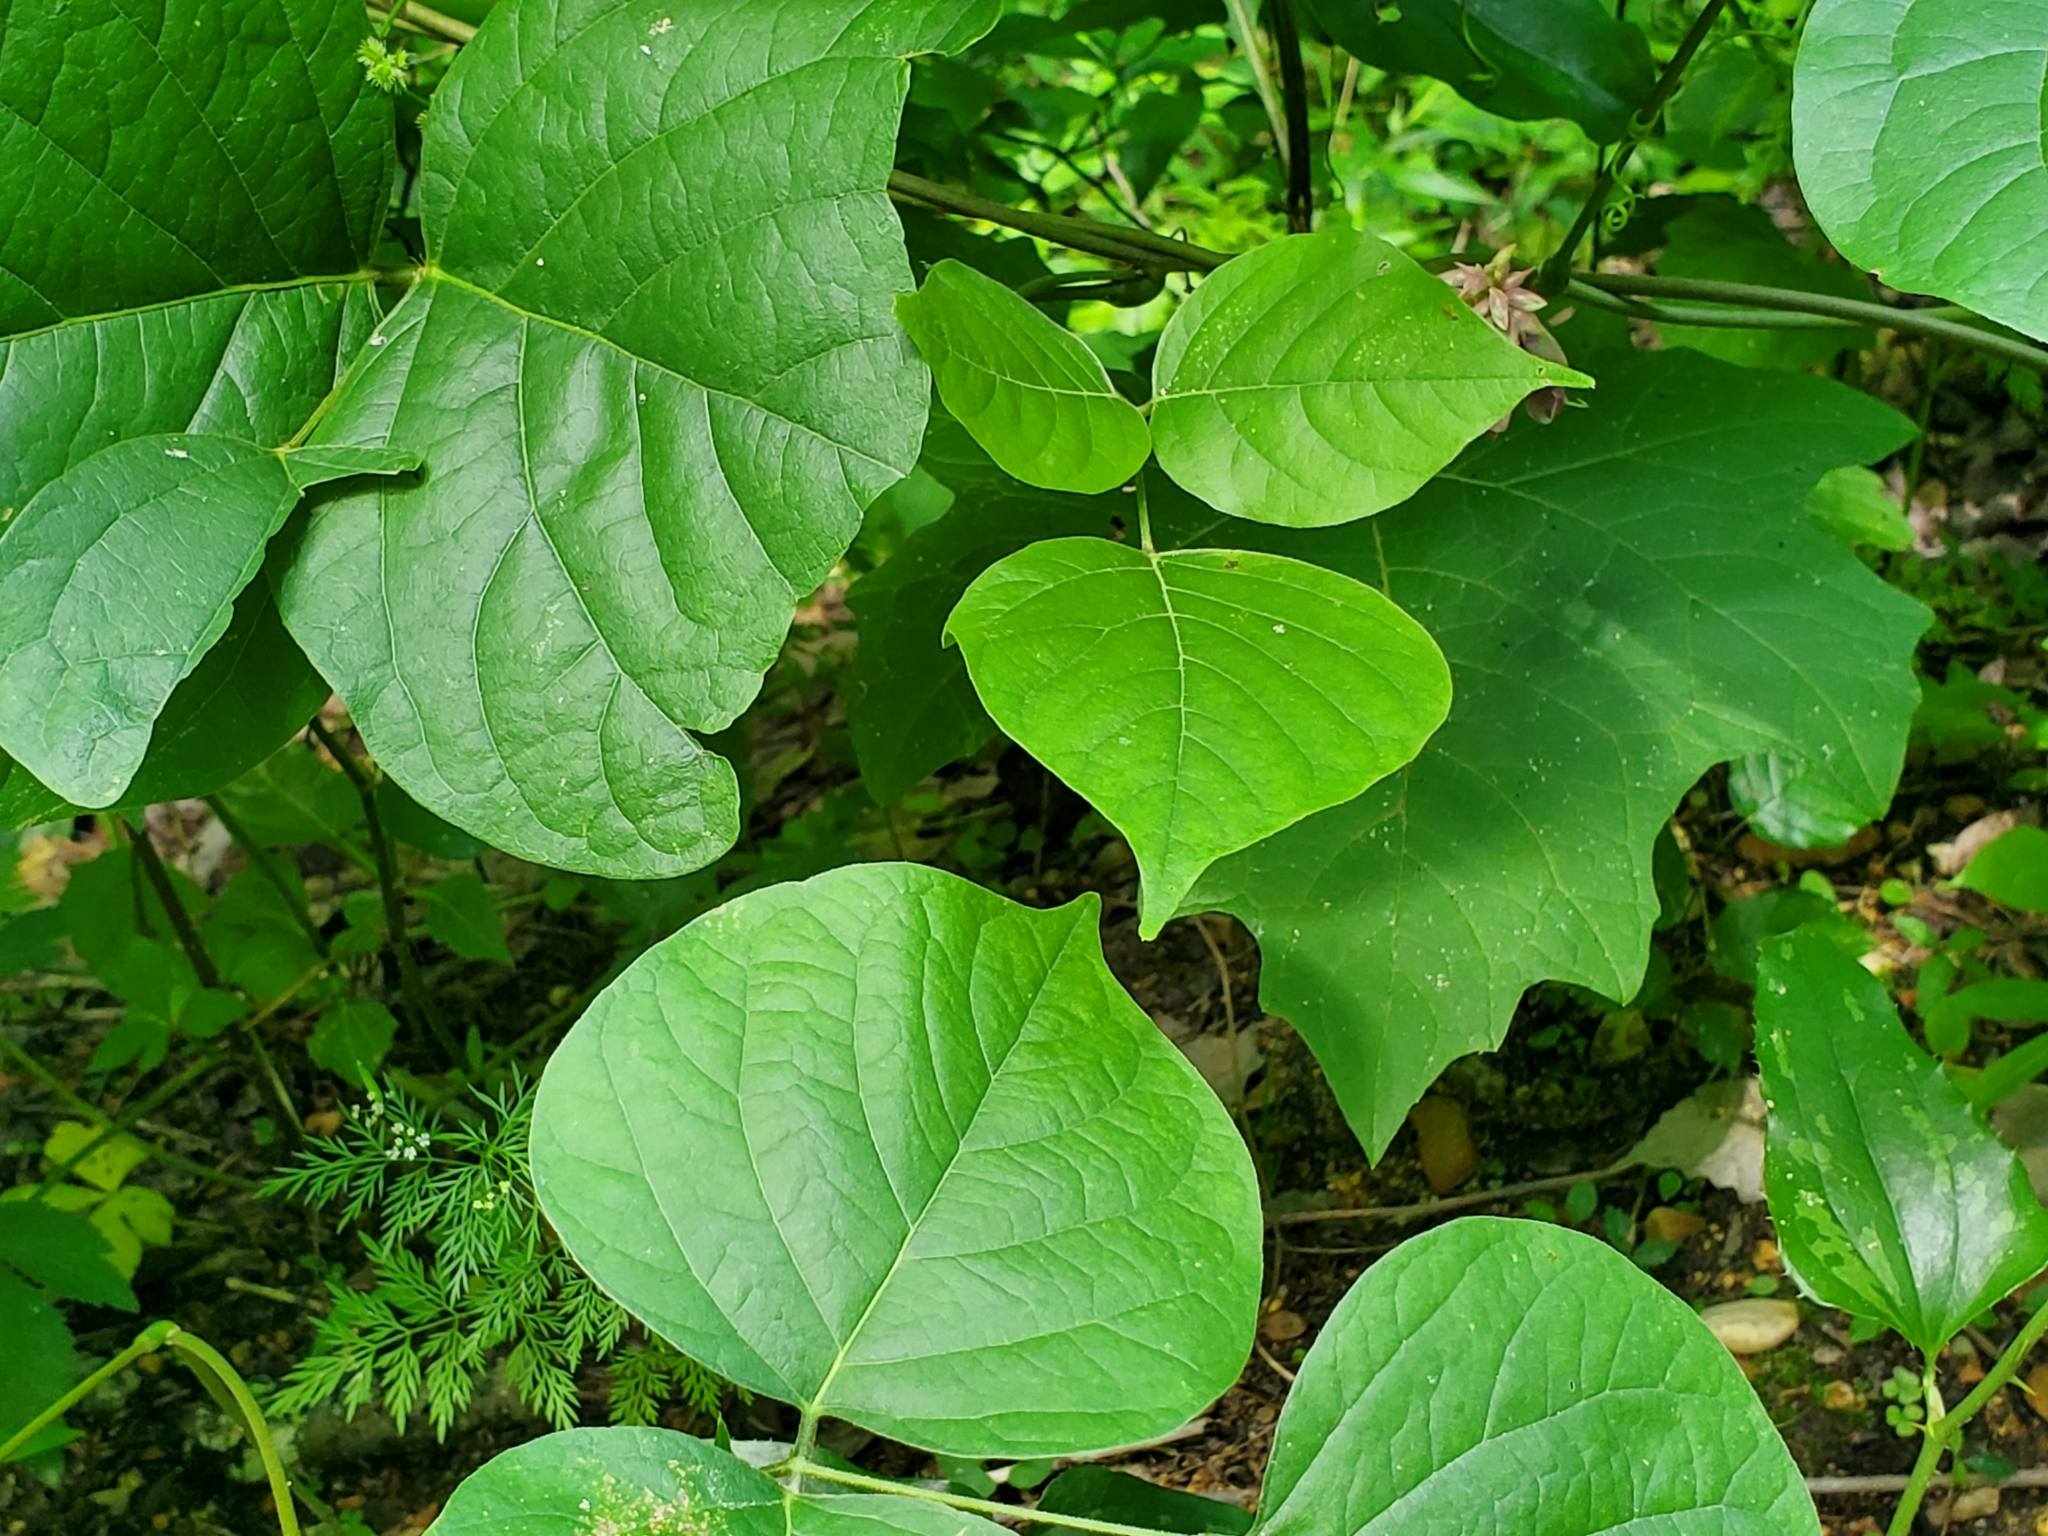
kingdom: Plantae
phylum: Tracheophyta
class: Magnoliopsida
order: Fabales
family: Fabaceae
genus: Lackeya
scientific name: Lackeya multiflora
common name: Boykin's clusterpea
